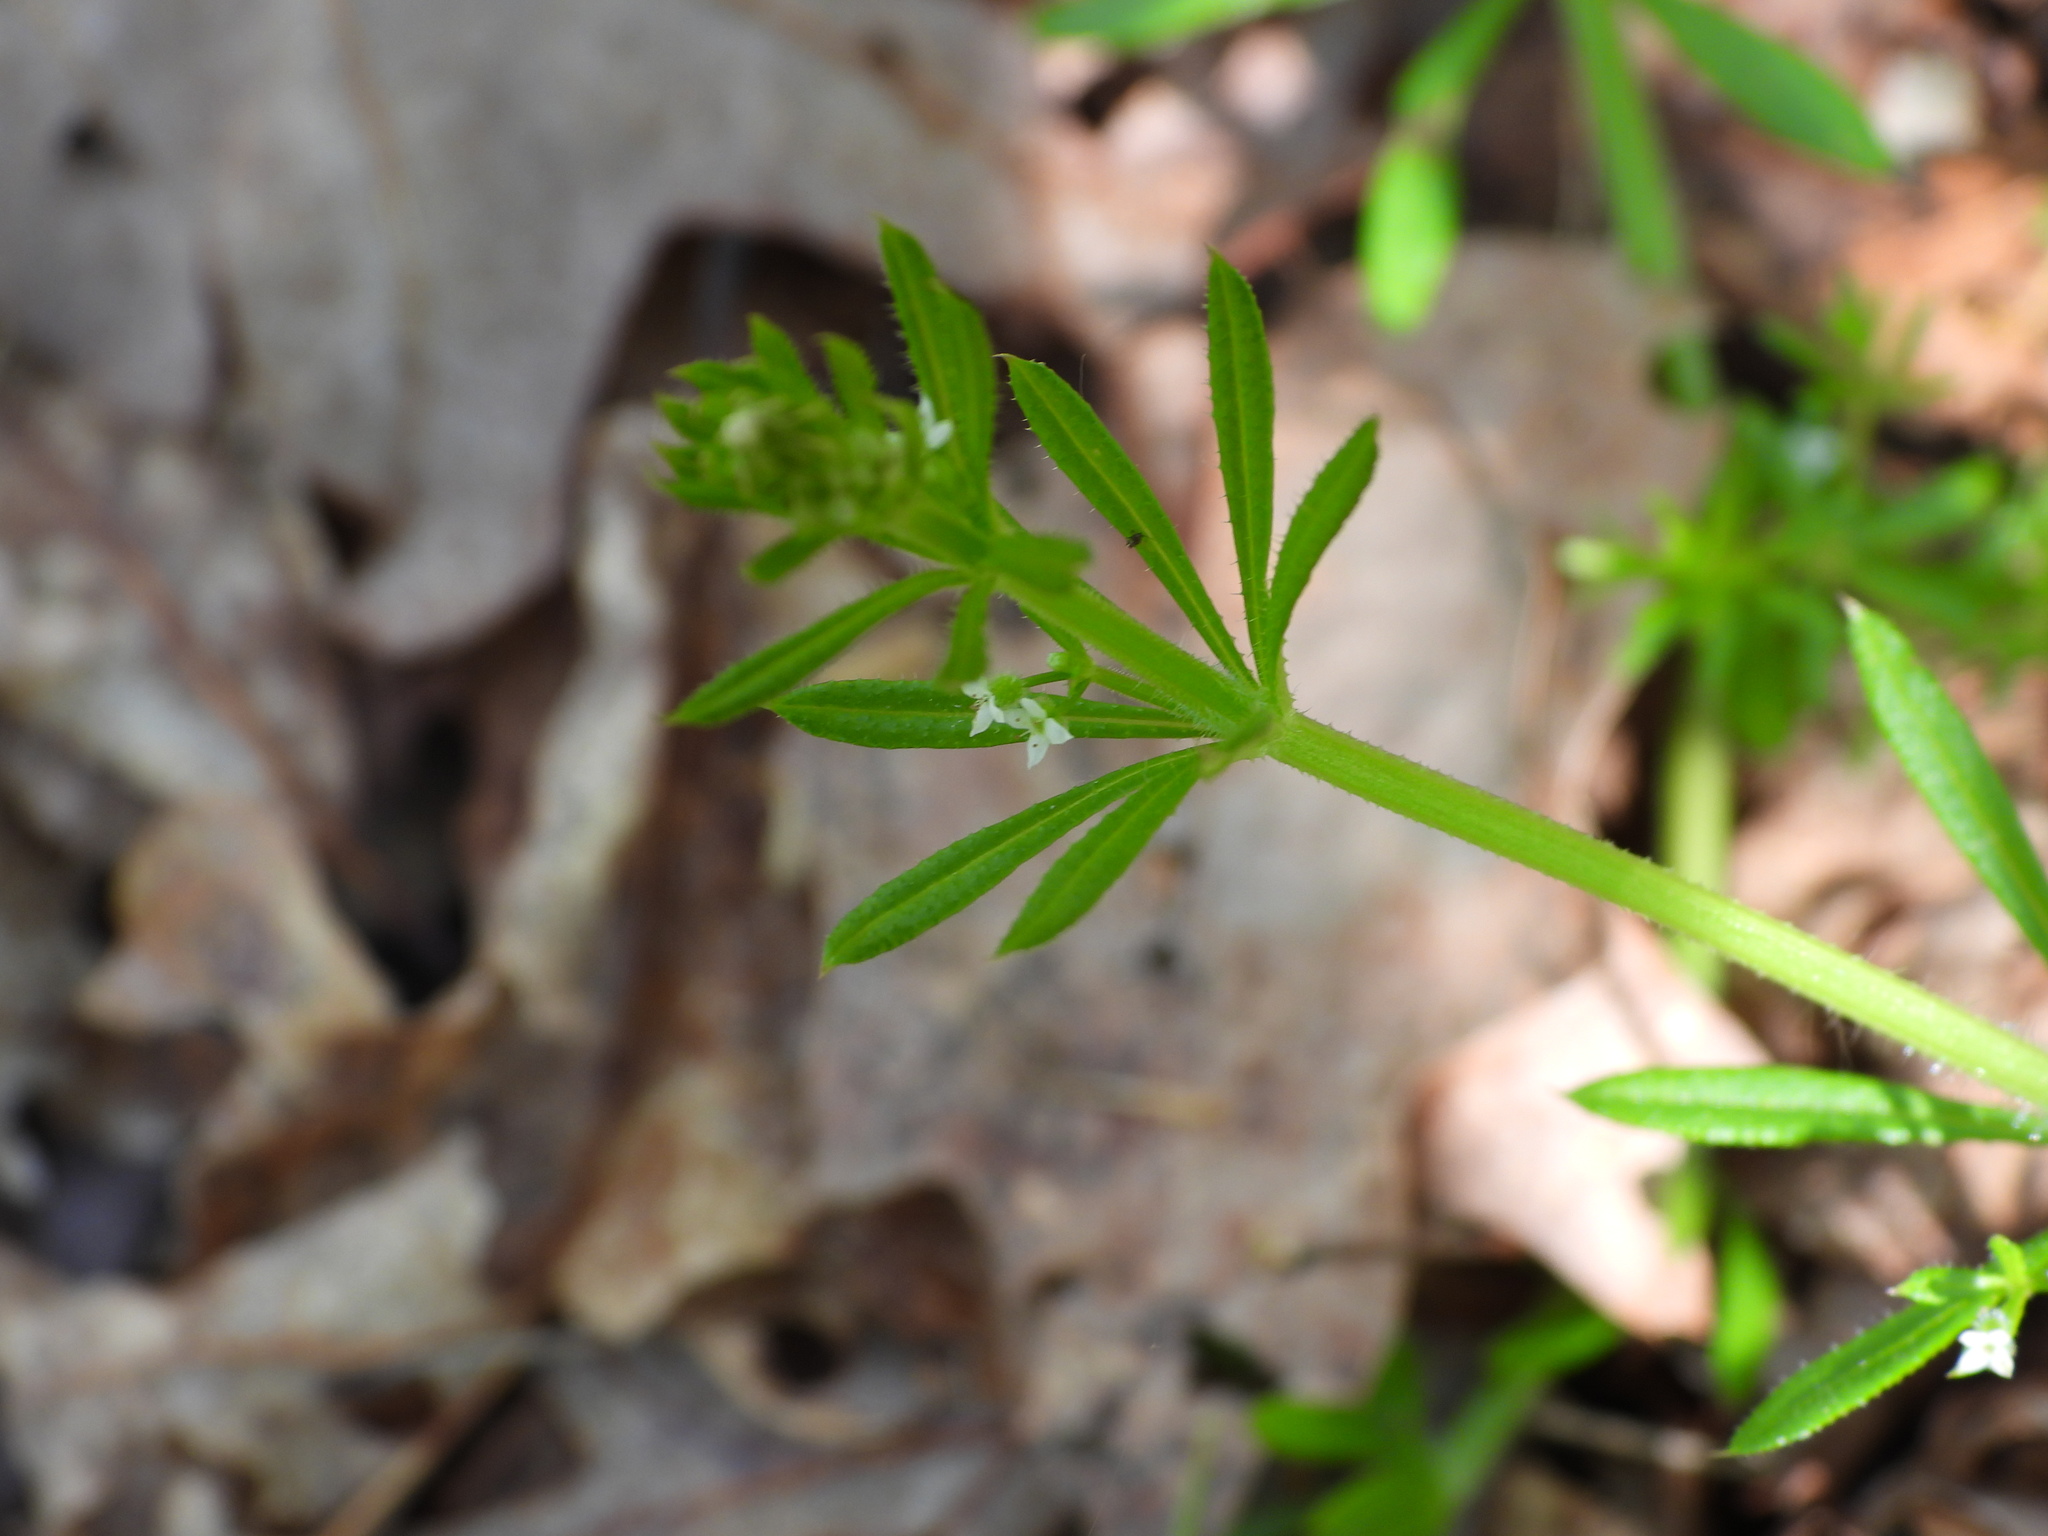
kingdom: Plantae
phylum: Tracheophyta
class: Magnoliopsida
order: Gentianales
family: Rubiaceae
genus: Galium
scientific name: Galium aparine
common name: Cleavers
